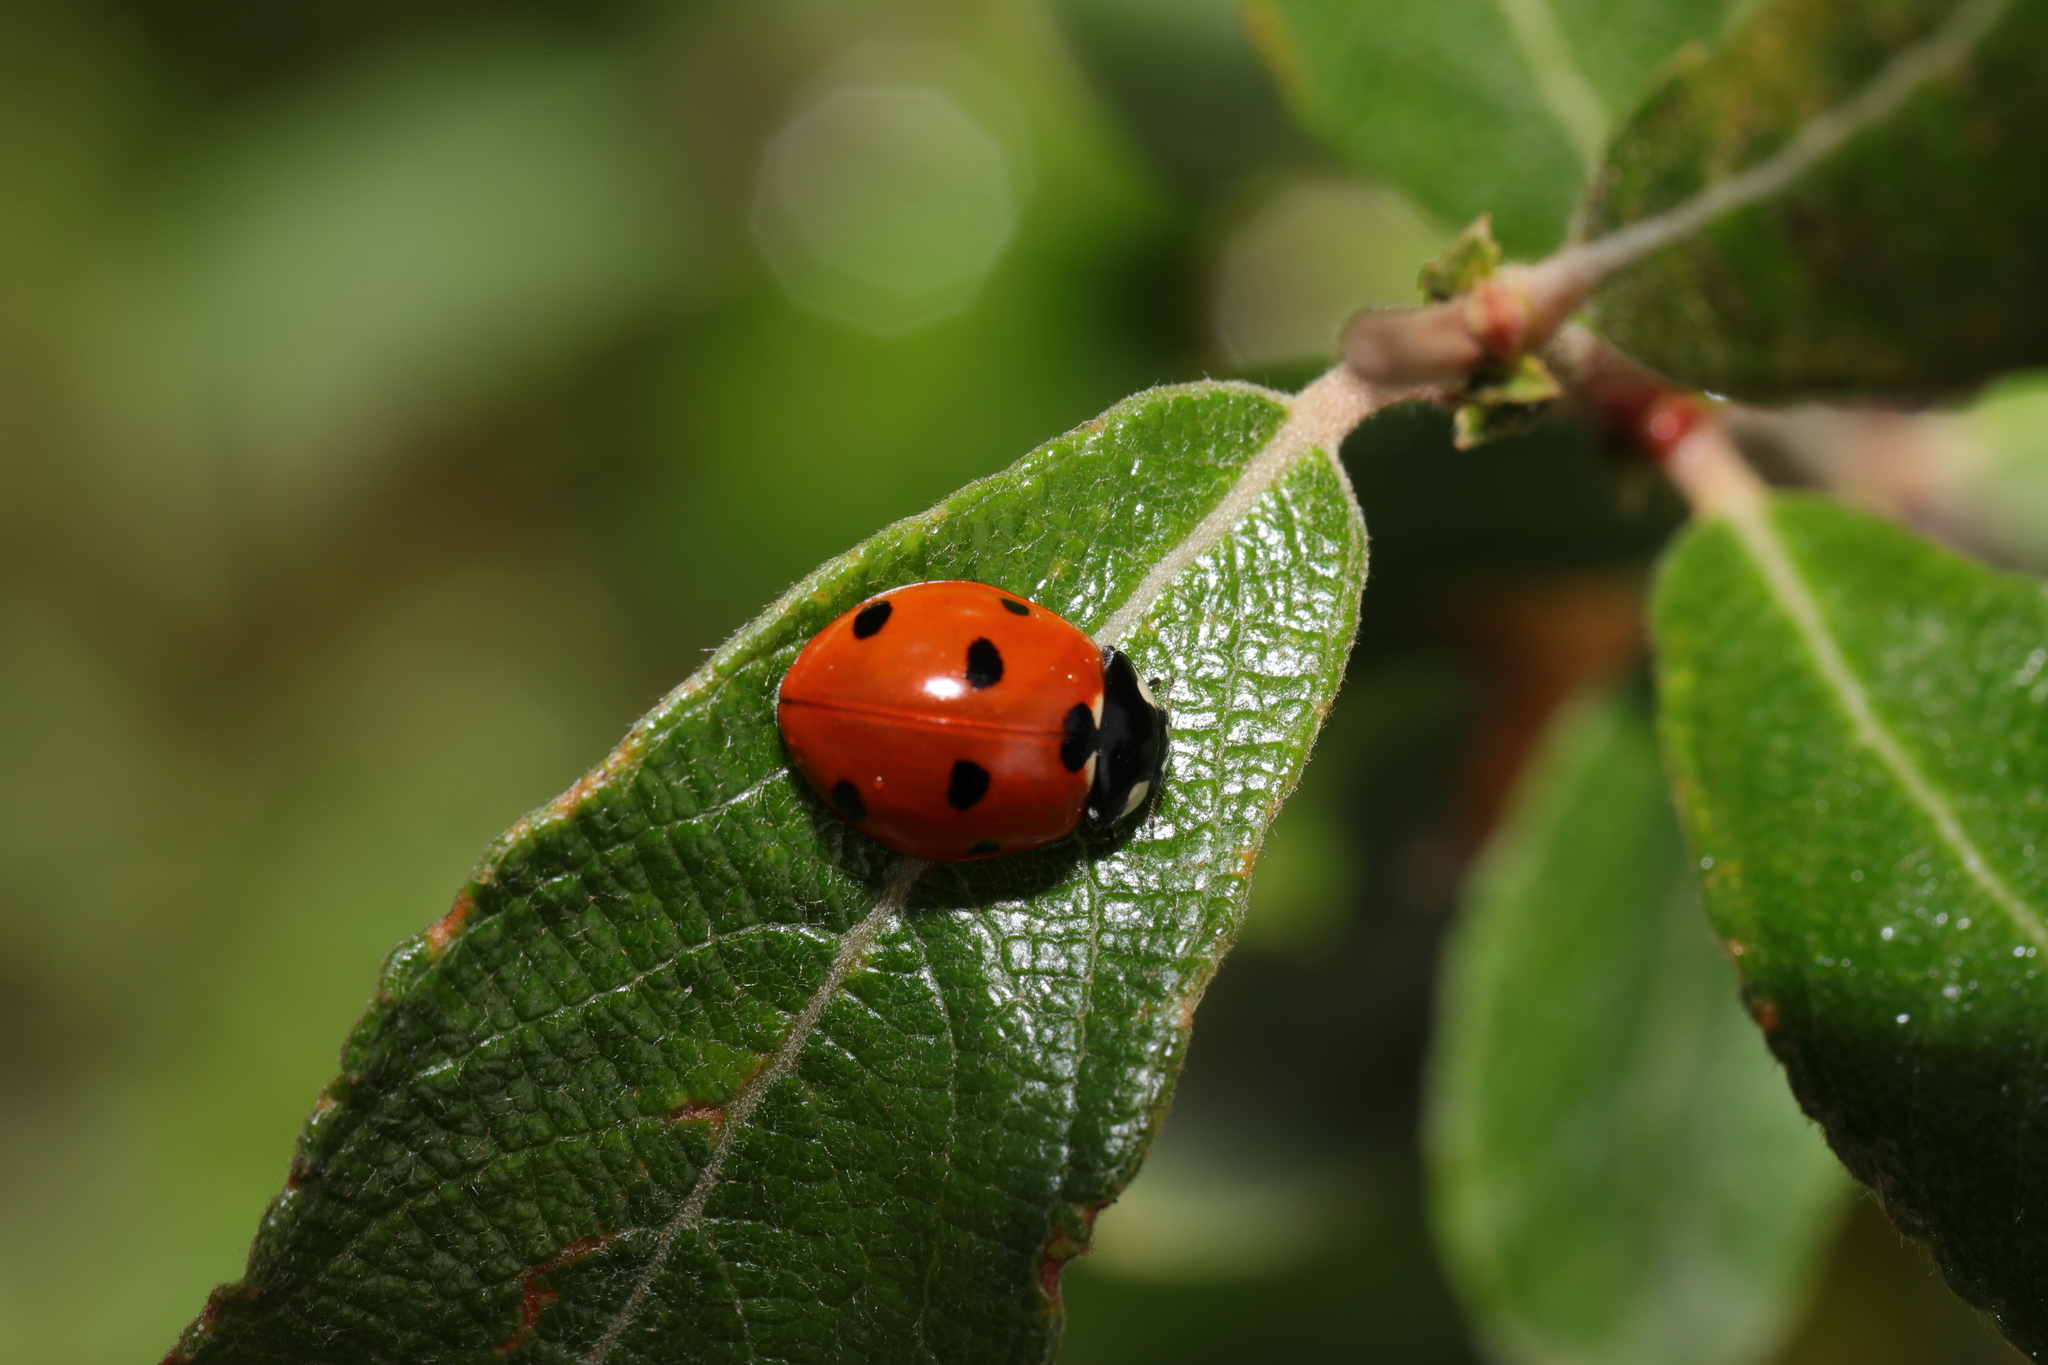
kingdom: Animalia
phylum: Arthropoda
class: Insecta
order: Coleoptera
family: Coccinellidae
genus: Coccinella
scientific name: Coccinella septempunctata
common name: Sevenspotted lady beetle
